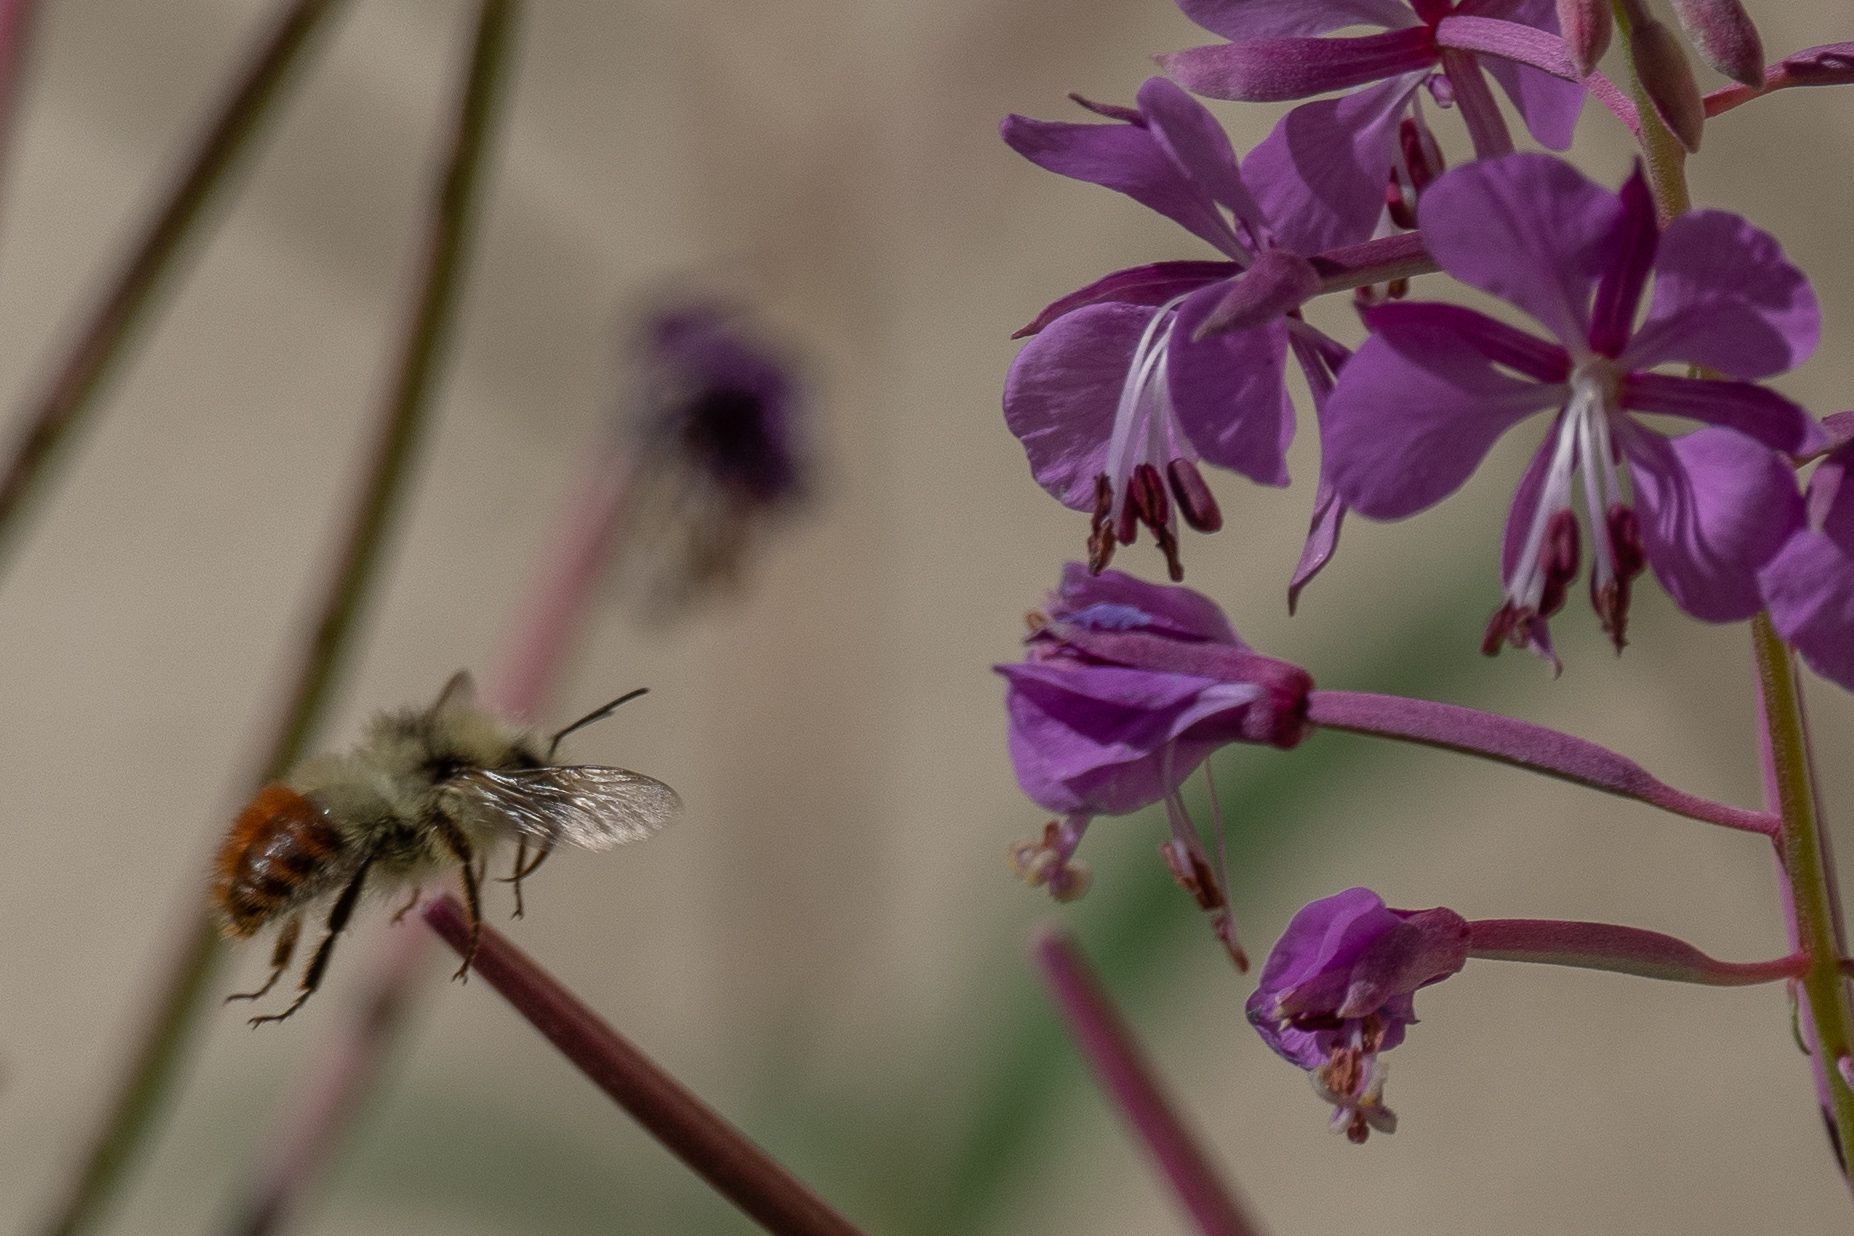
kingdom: Animalia
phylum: Arthropoda
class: Insecta
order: Hymenoptera
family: Apidae
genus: Bombus
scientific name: Bombus flavifrons
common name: Yellow head bumble bee
